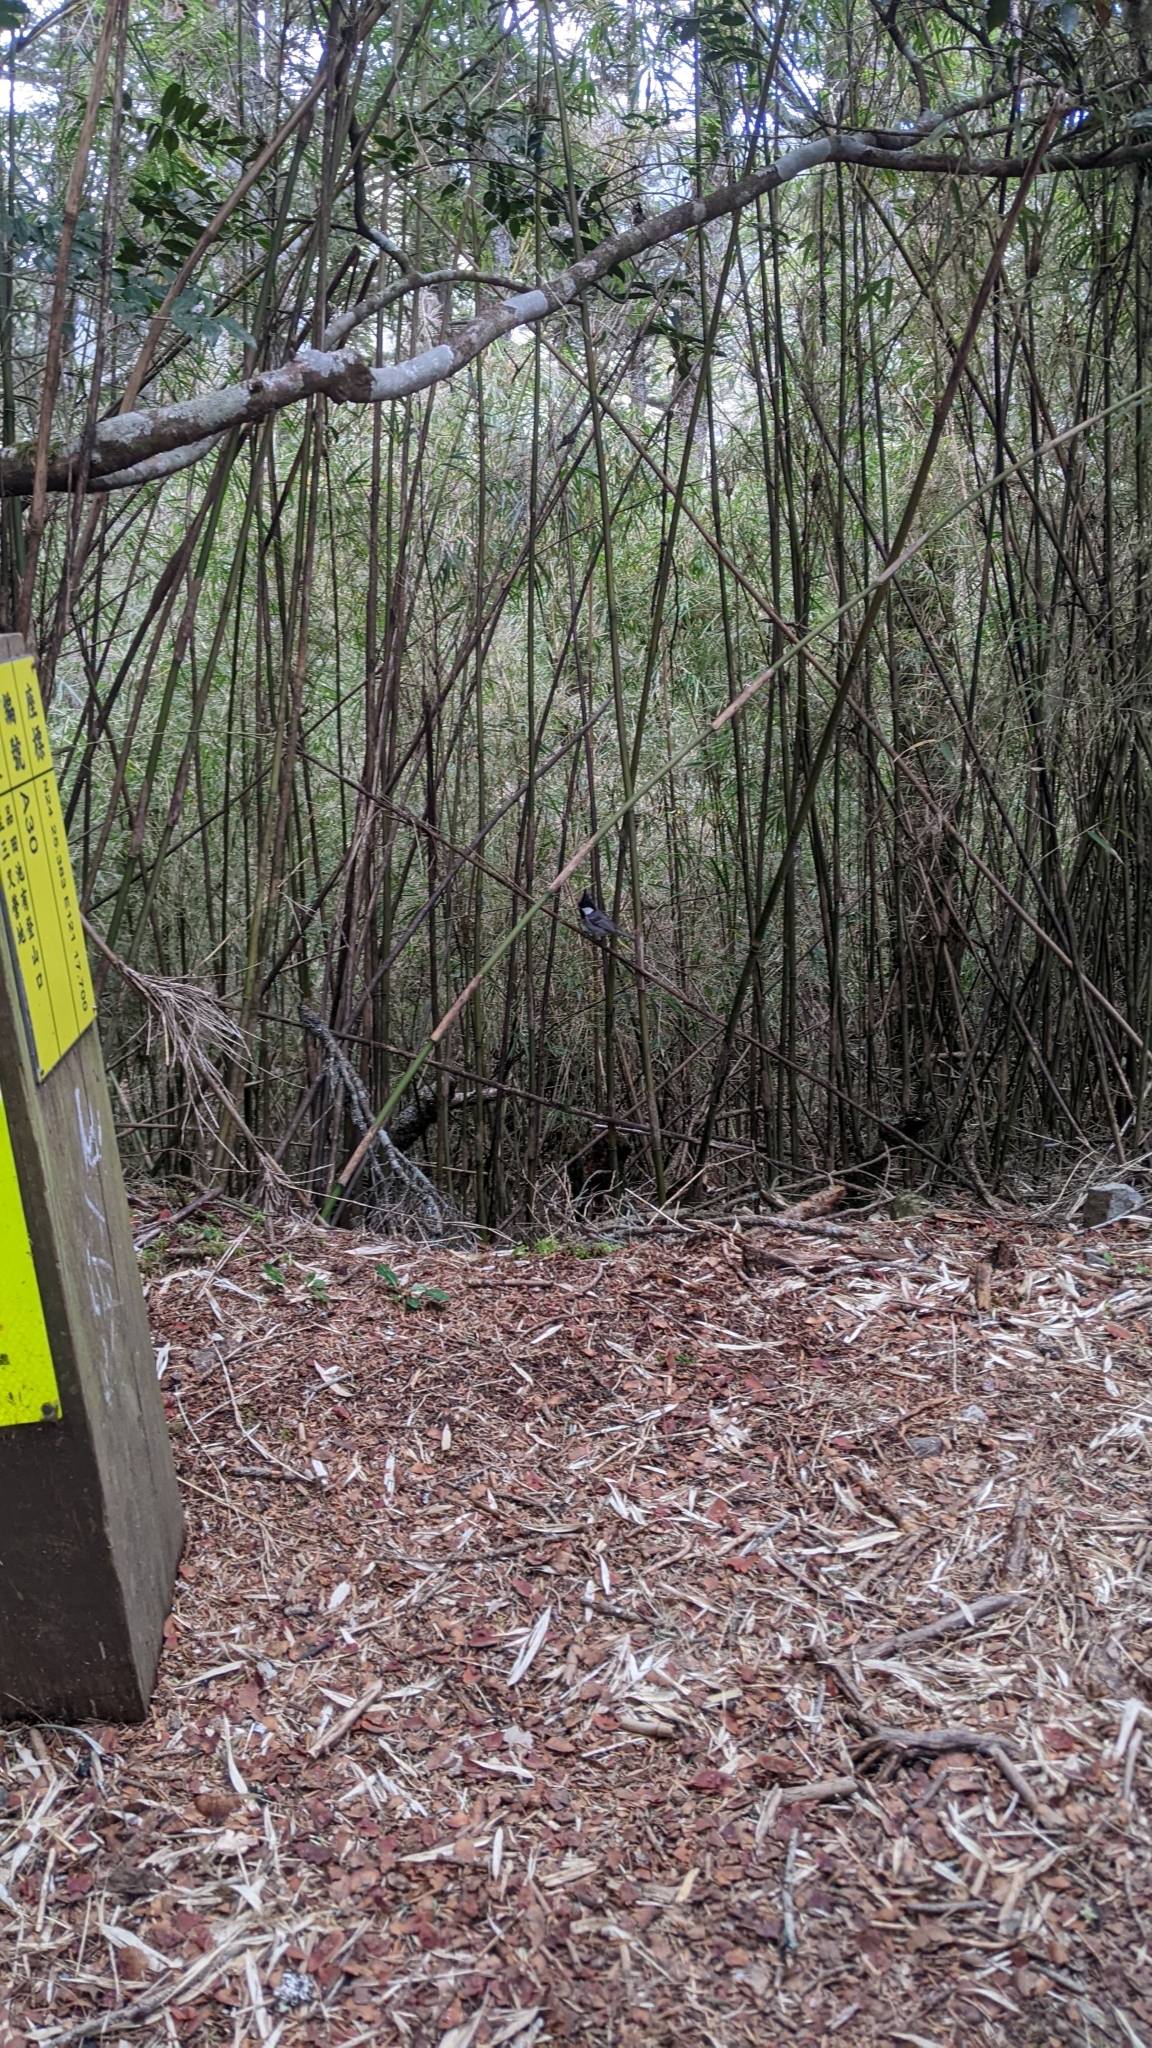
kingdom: Animalia
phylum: Chordata
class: Aves
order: Passeriformes
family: Paridae
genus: Periparus
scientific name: Periparus ater
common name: Coal tit
